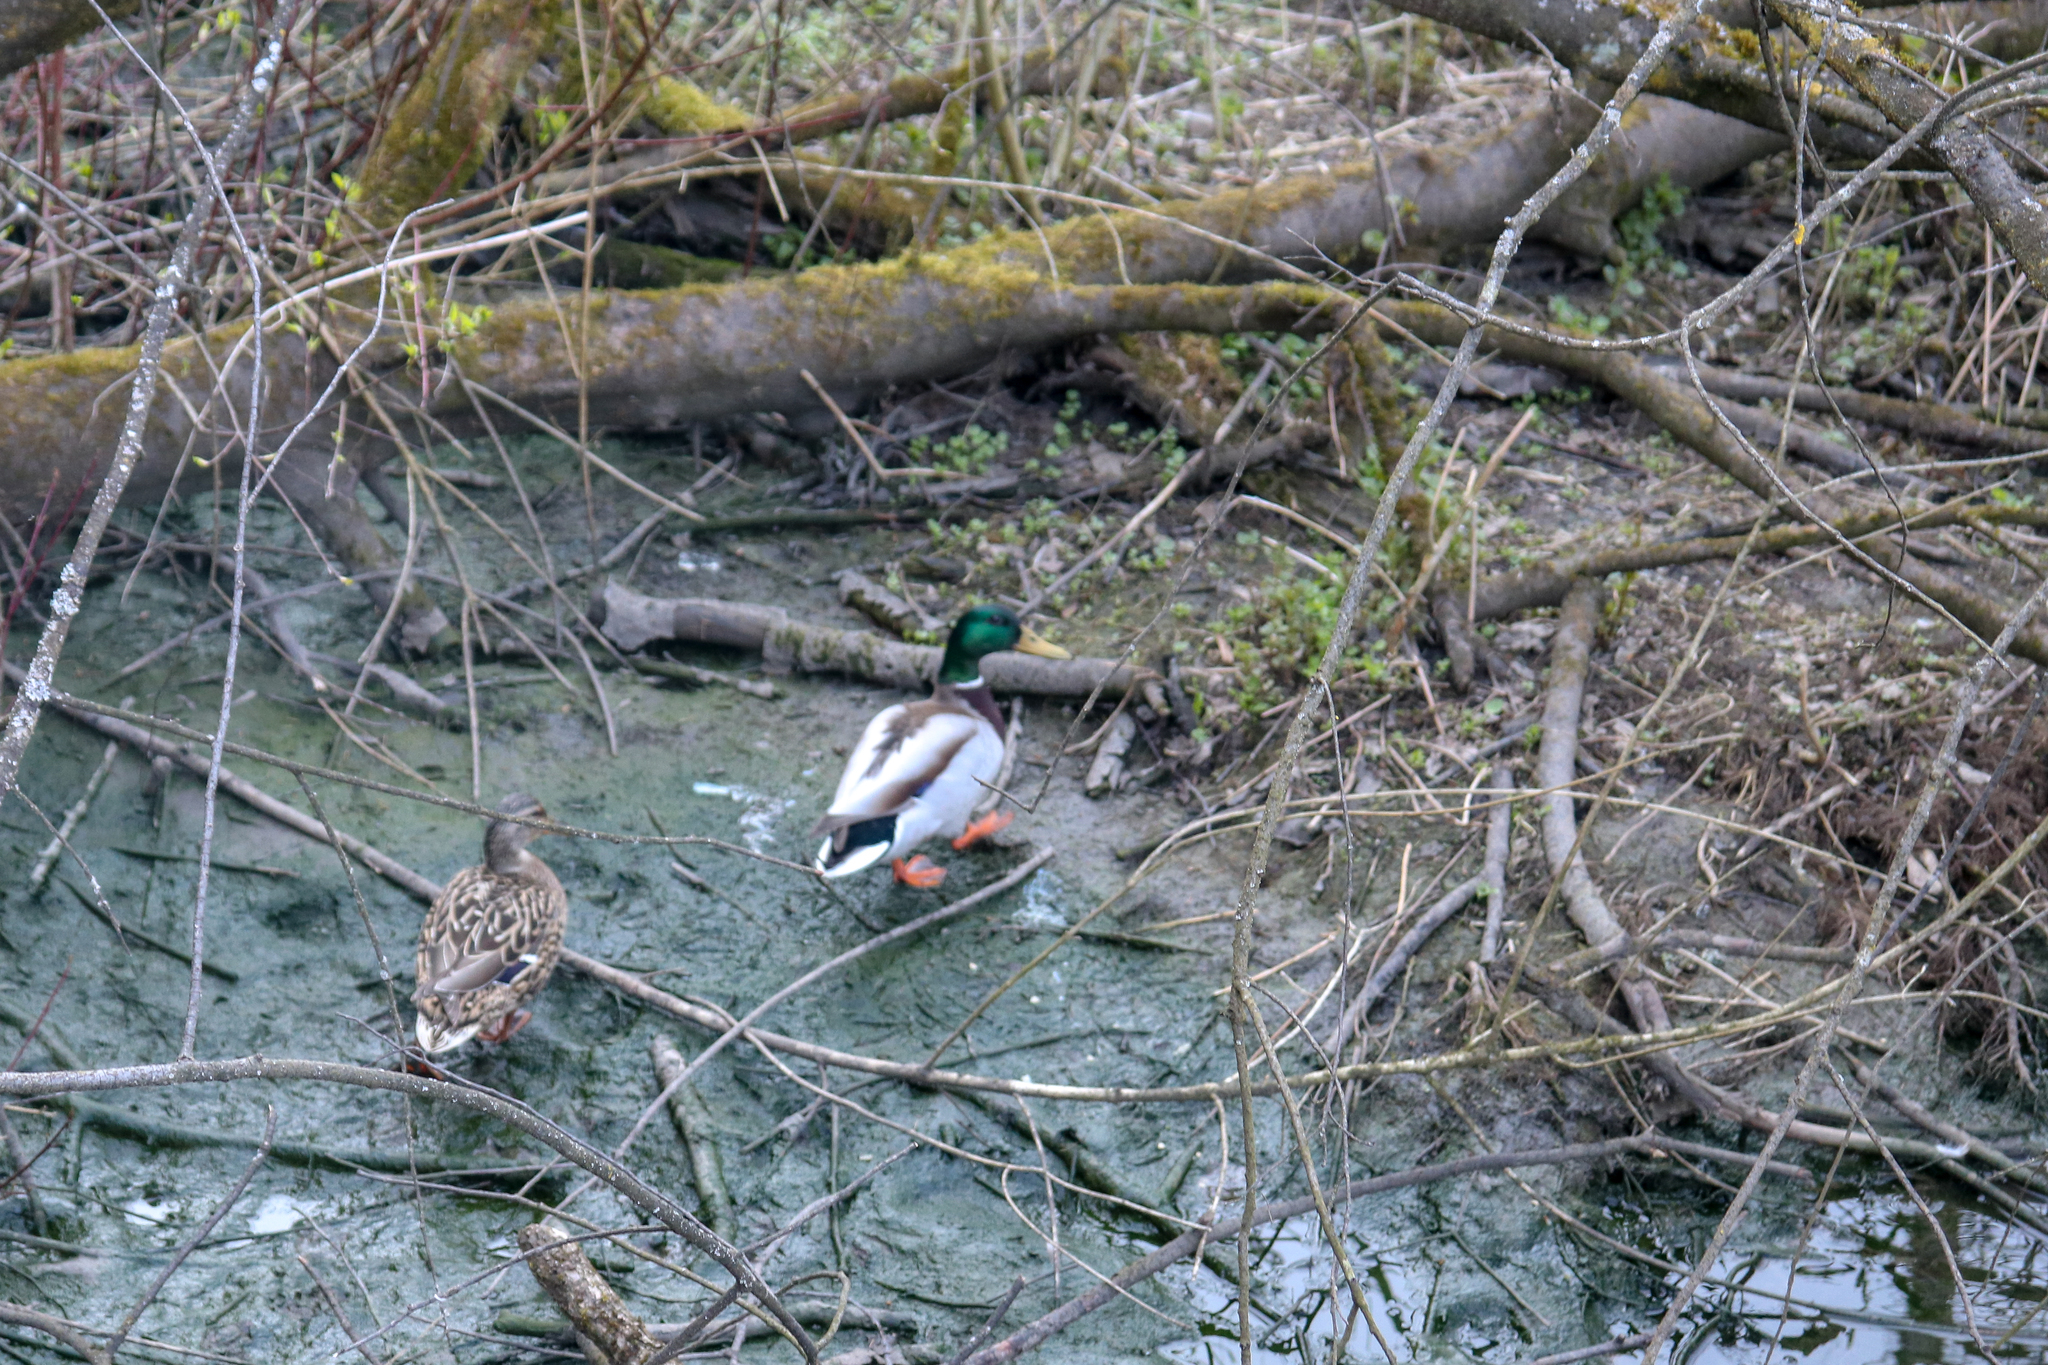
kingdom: Animalia
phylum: Chordata
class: Aves
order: Anseriformes
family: Anatidae
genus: Anas
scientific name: Anas platyrhynchos
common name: Mallard
